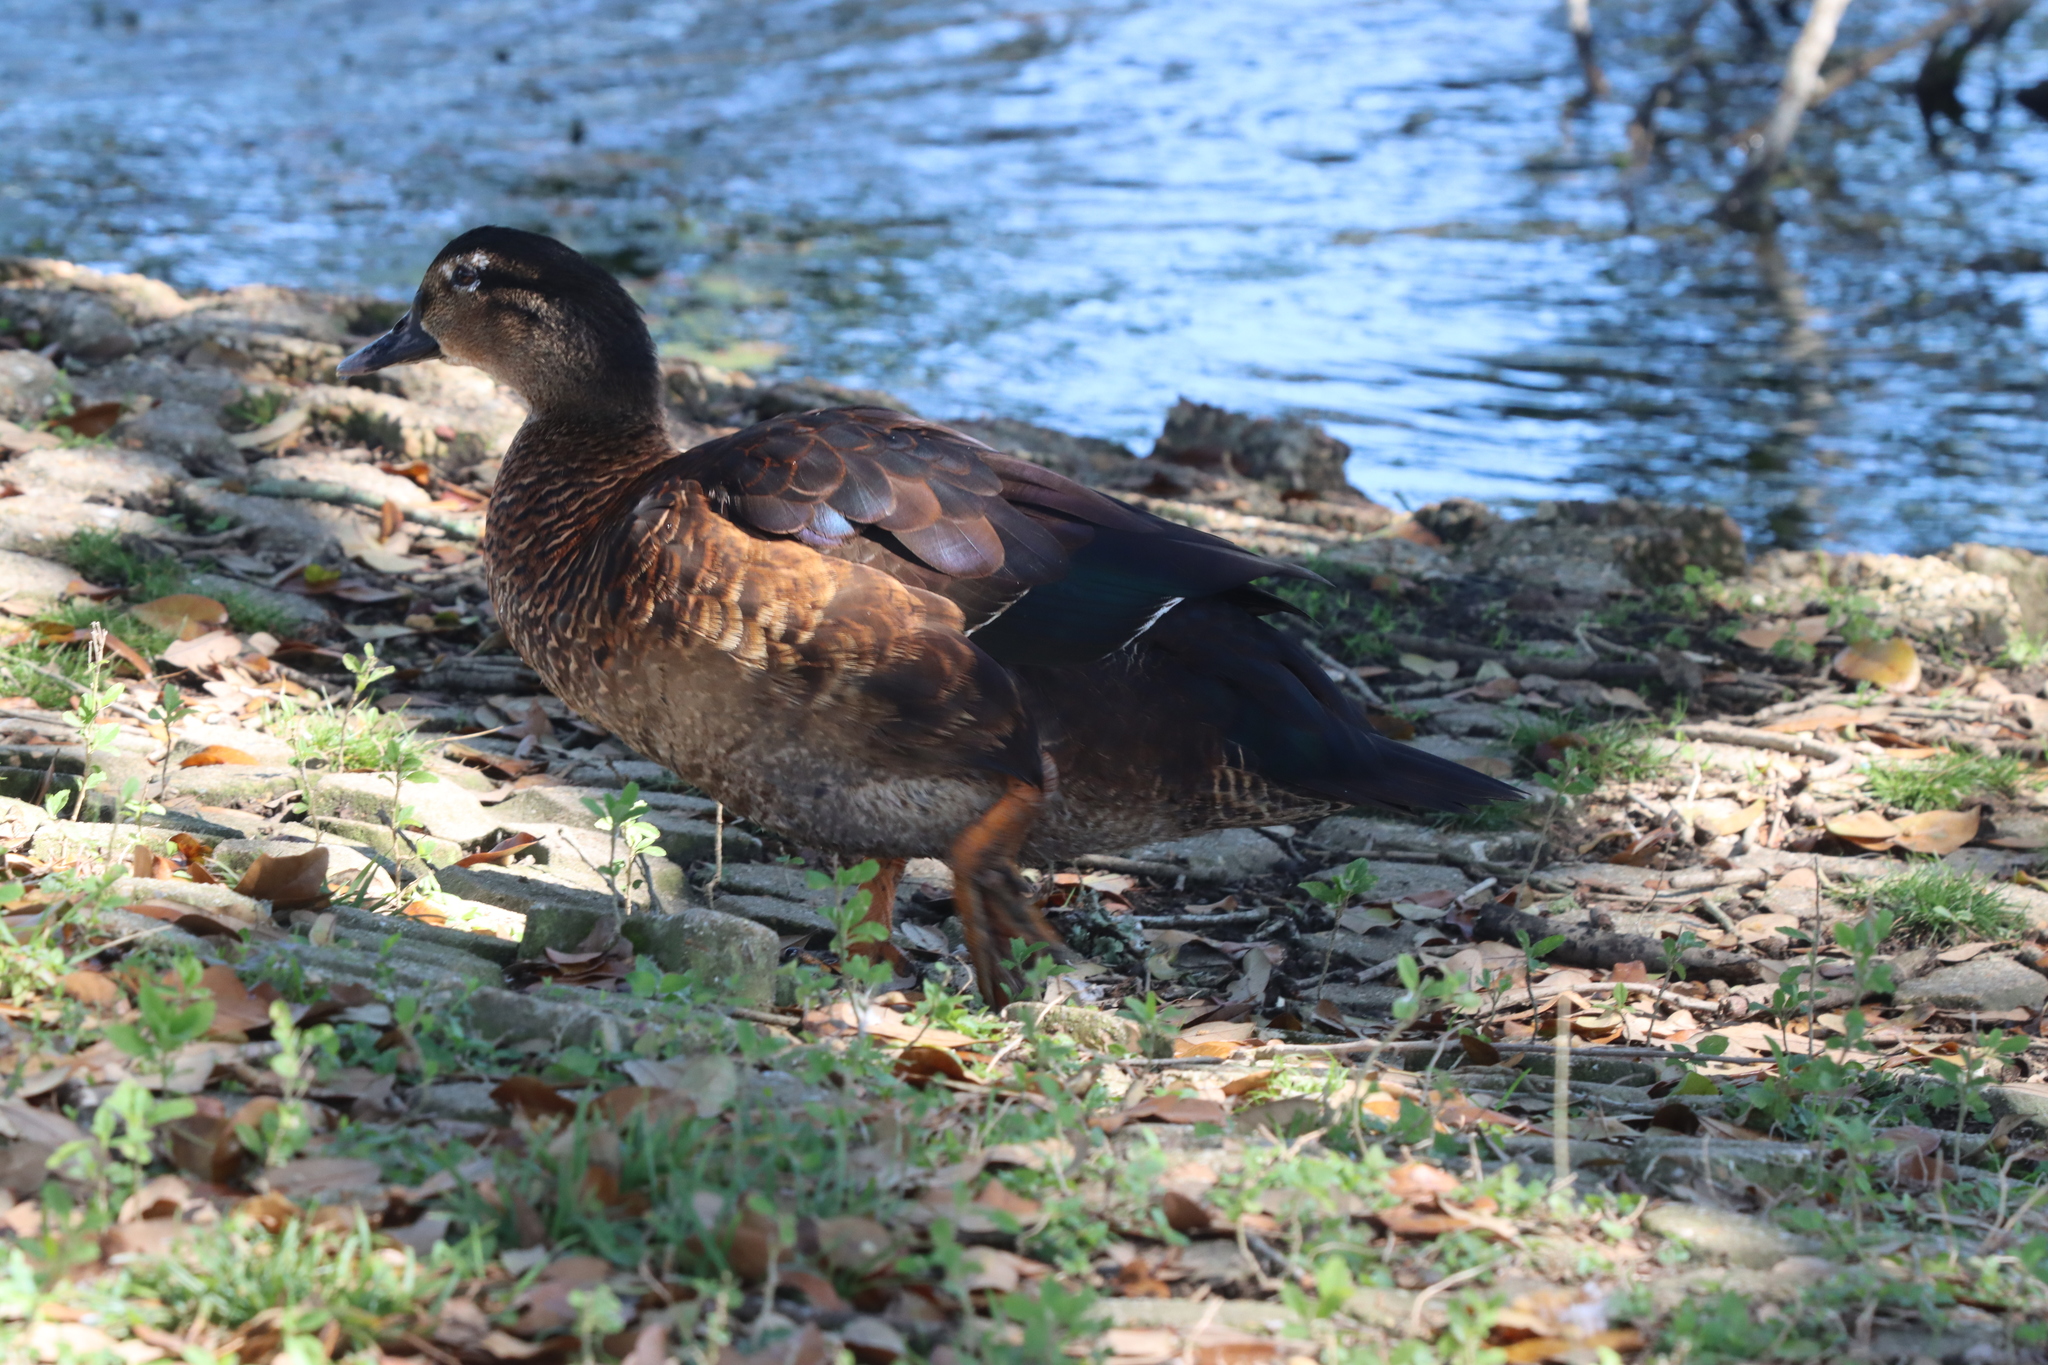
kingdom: Animalia
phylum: Chordata
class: Aves
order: Anseriformes
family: Anatidae
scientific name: Anatidae
